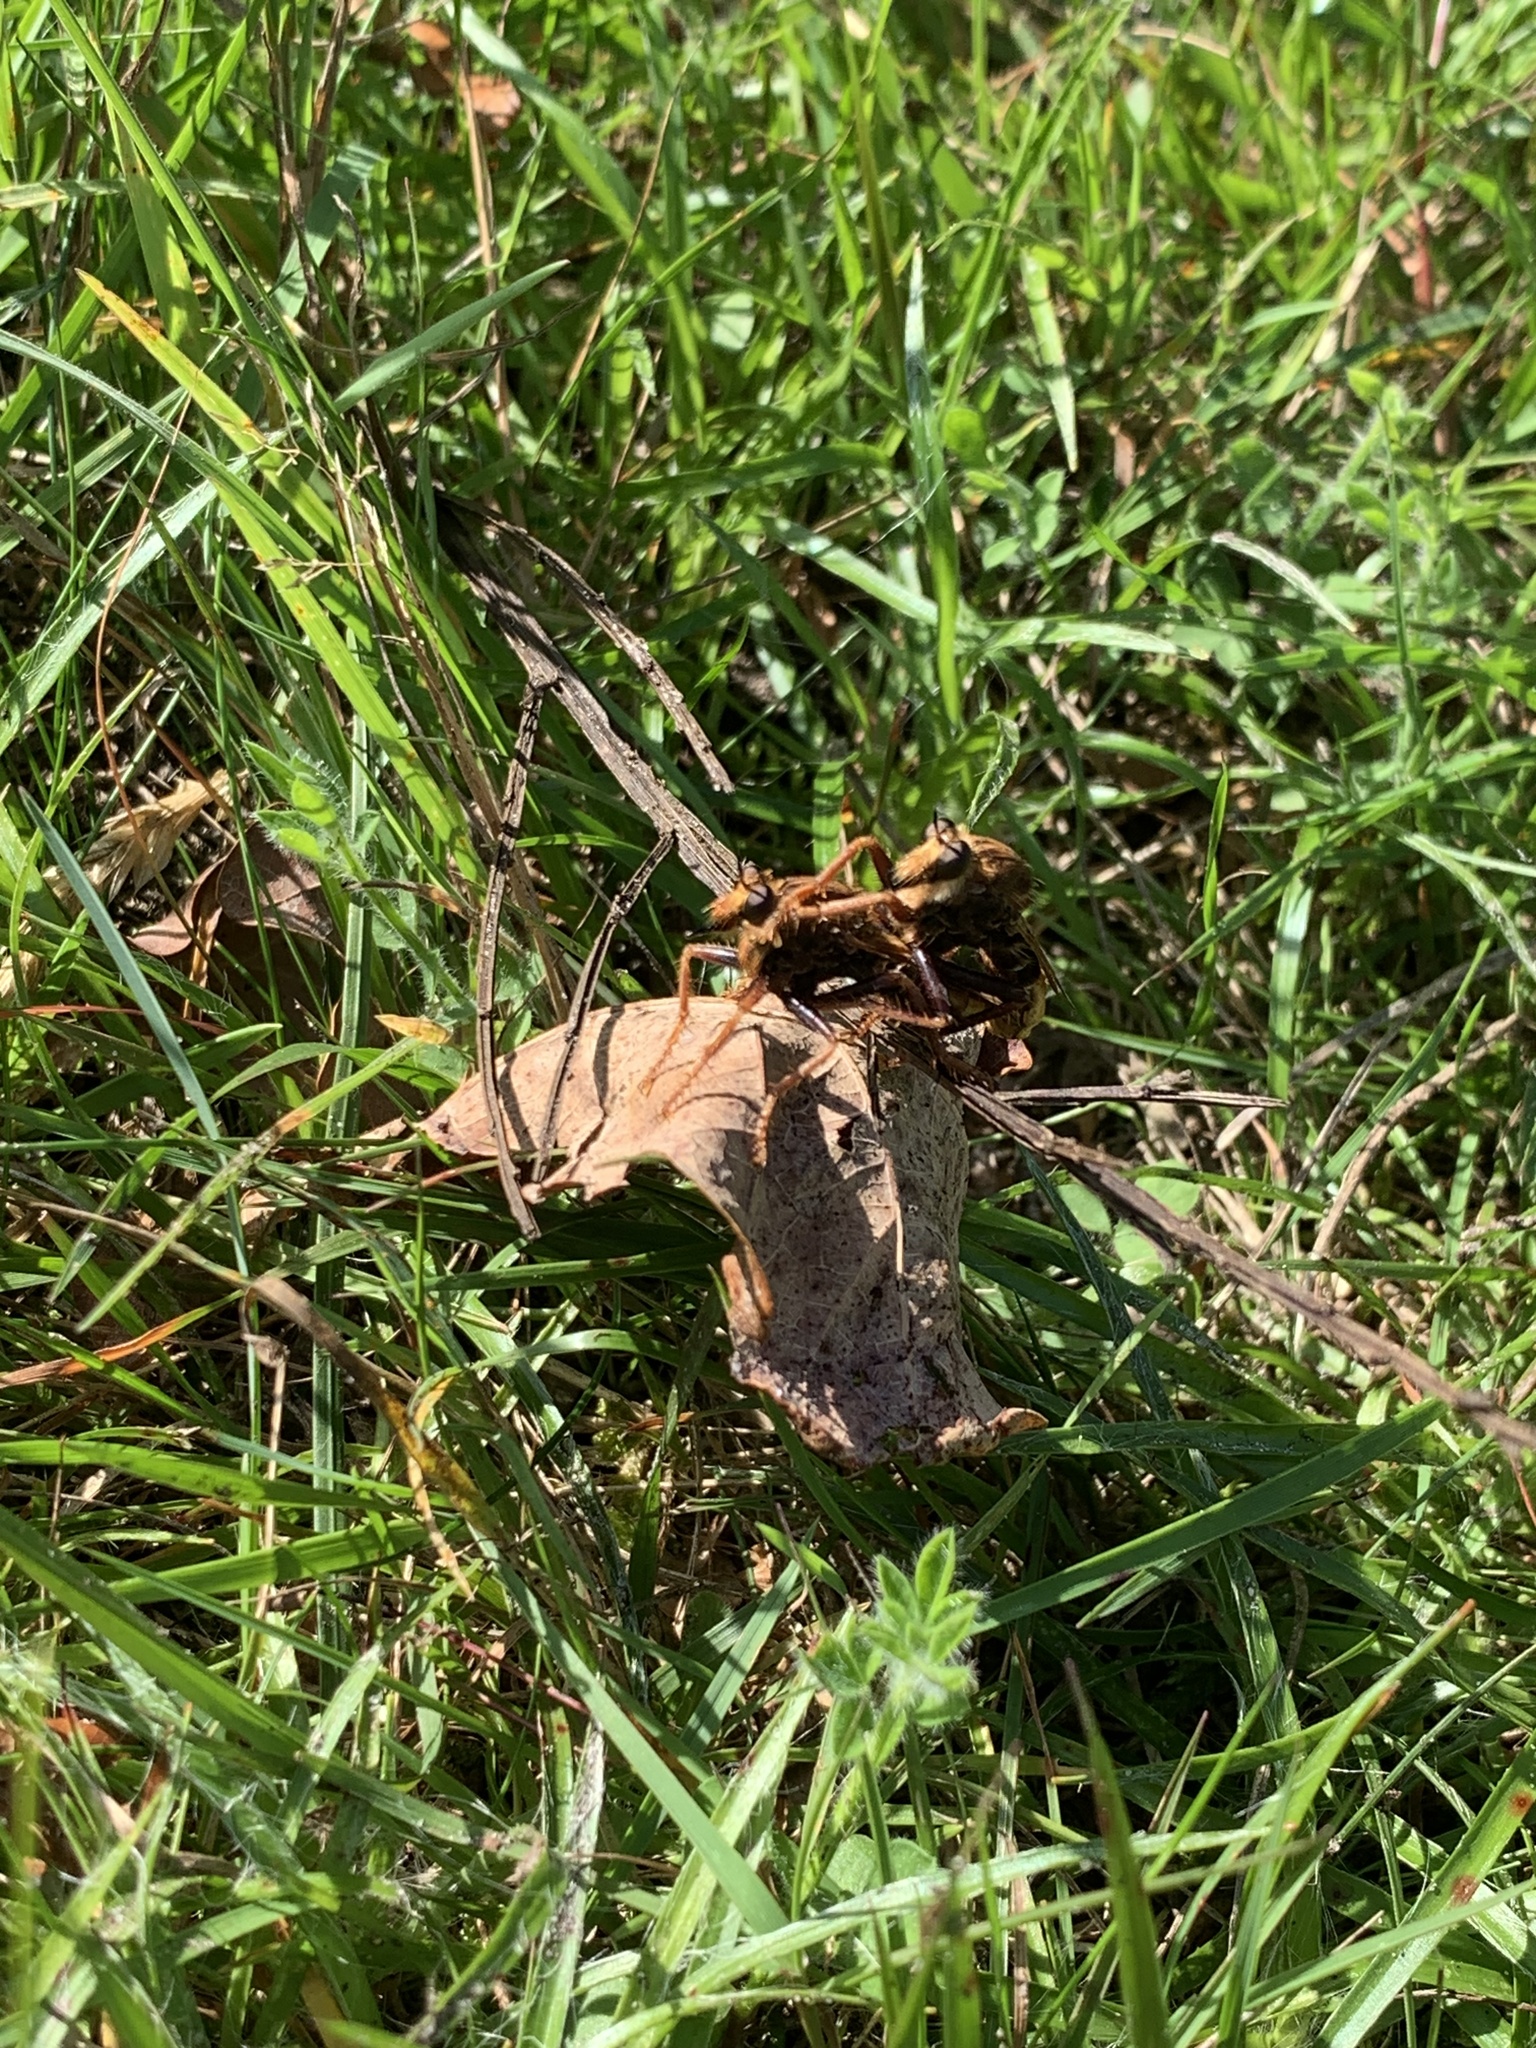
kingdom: Animalia
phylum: Arthropoda
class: Insecta
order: Diptera
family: Asilidae
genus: Asilus
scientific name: Asilus crabroniformis
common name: Hornet robberfly
